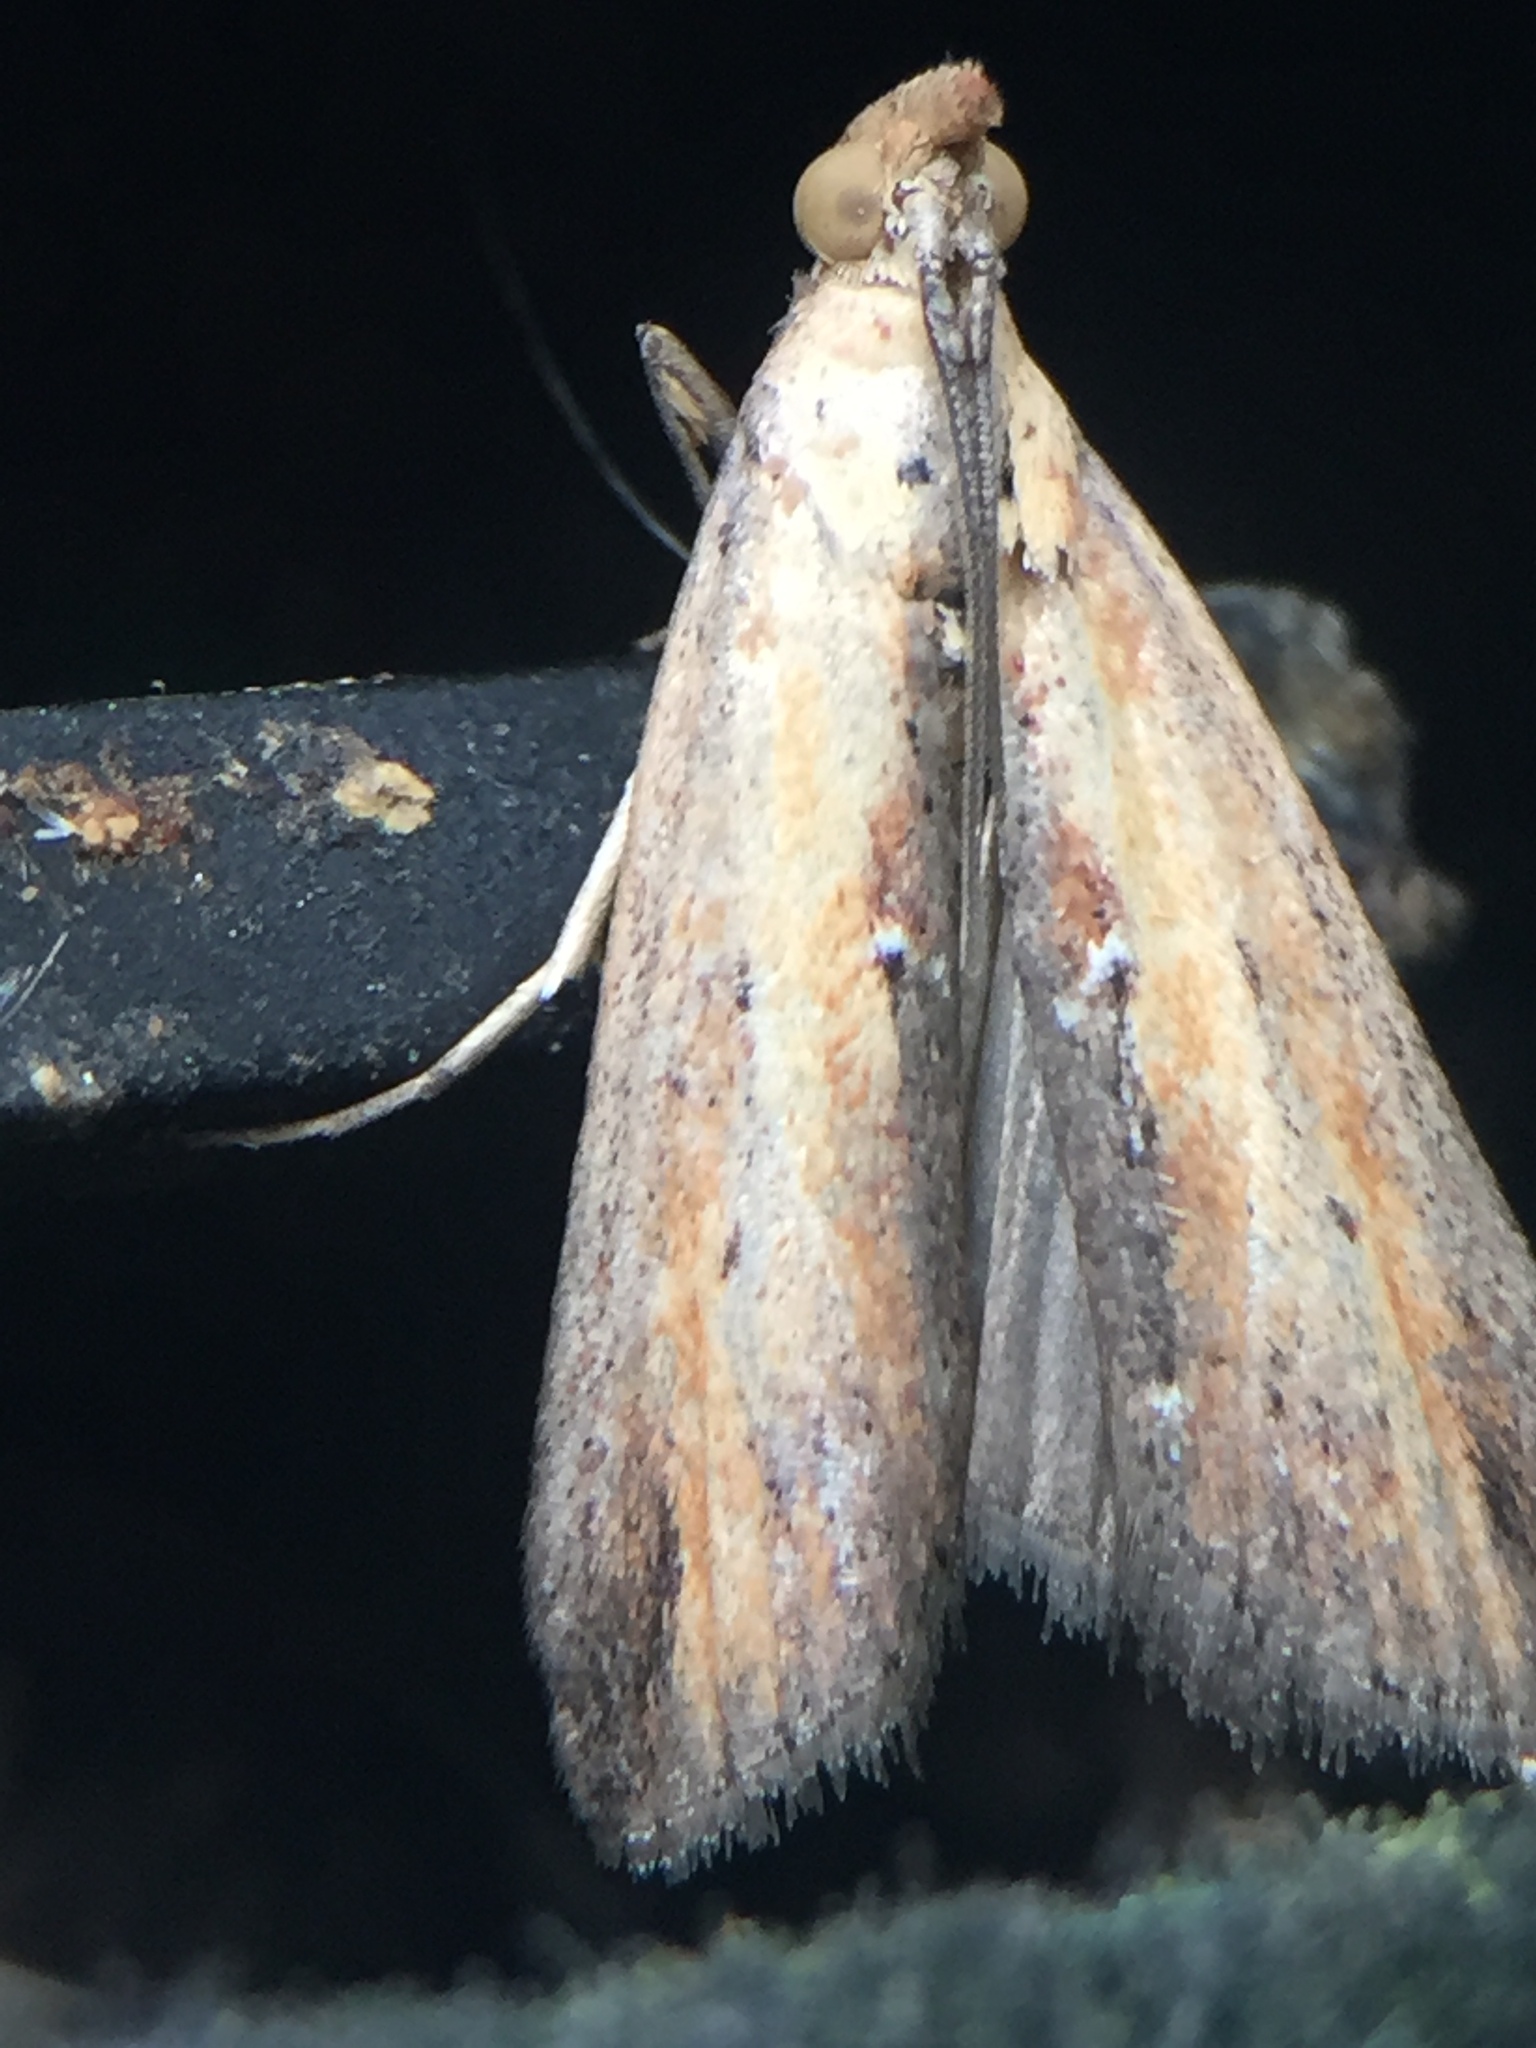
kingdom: Animalia
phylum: Arthropoda
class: Insecta
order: Lepidoptera
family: Pyralidae
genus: Morosaphycita
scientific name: Morosaphycita oculiferella
